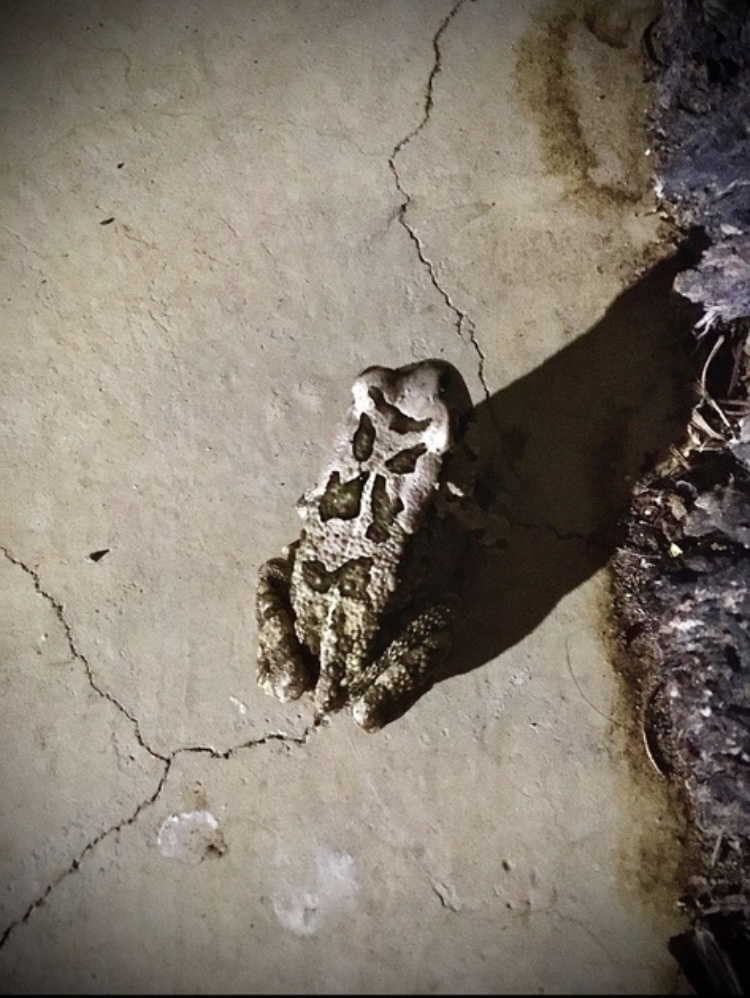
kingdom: Animalia
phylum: Chordata
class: Amphibia
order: Anura
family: Bufonidae
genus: Sclerophrys
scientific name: Sclerophrys capensis
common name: Ranger’s toad
